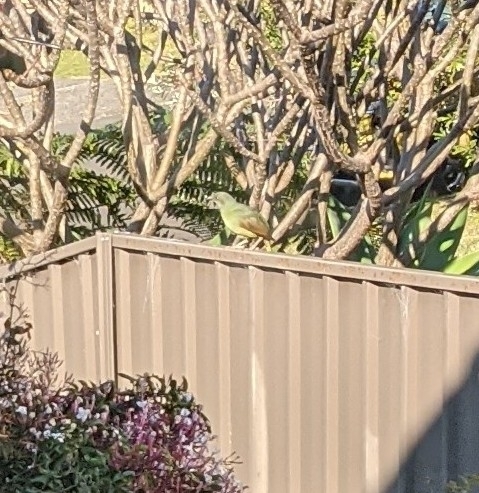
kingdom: Animalia
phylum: Chordata
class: Aves
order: Passeriformes
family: Ptilonorhynchidae
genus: Ptilonorhynchus
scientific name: Ptilonorhynchus violaceus
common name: Satin bowerbird
